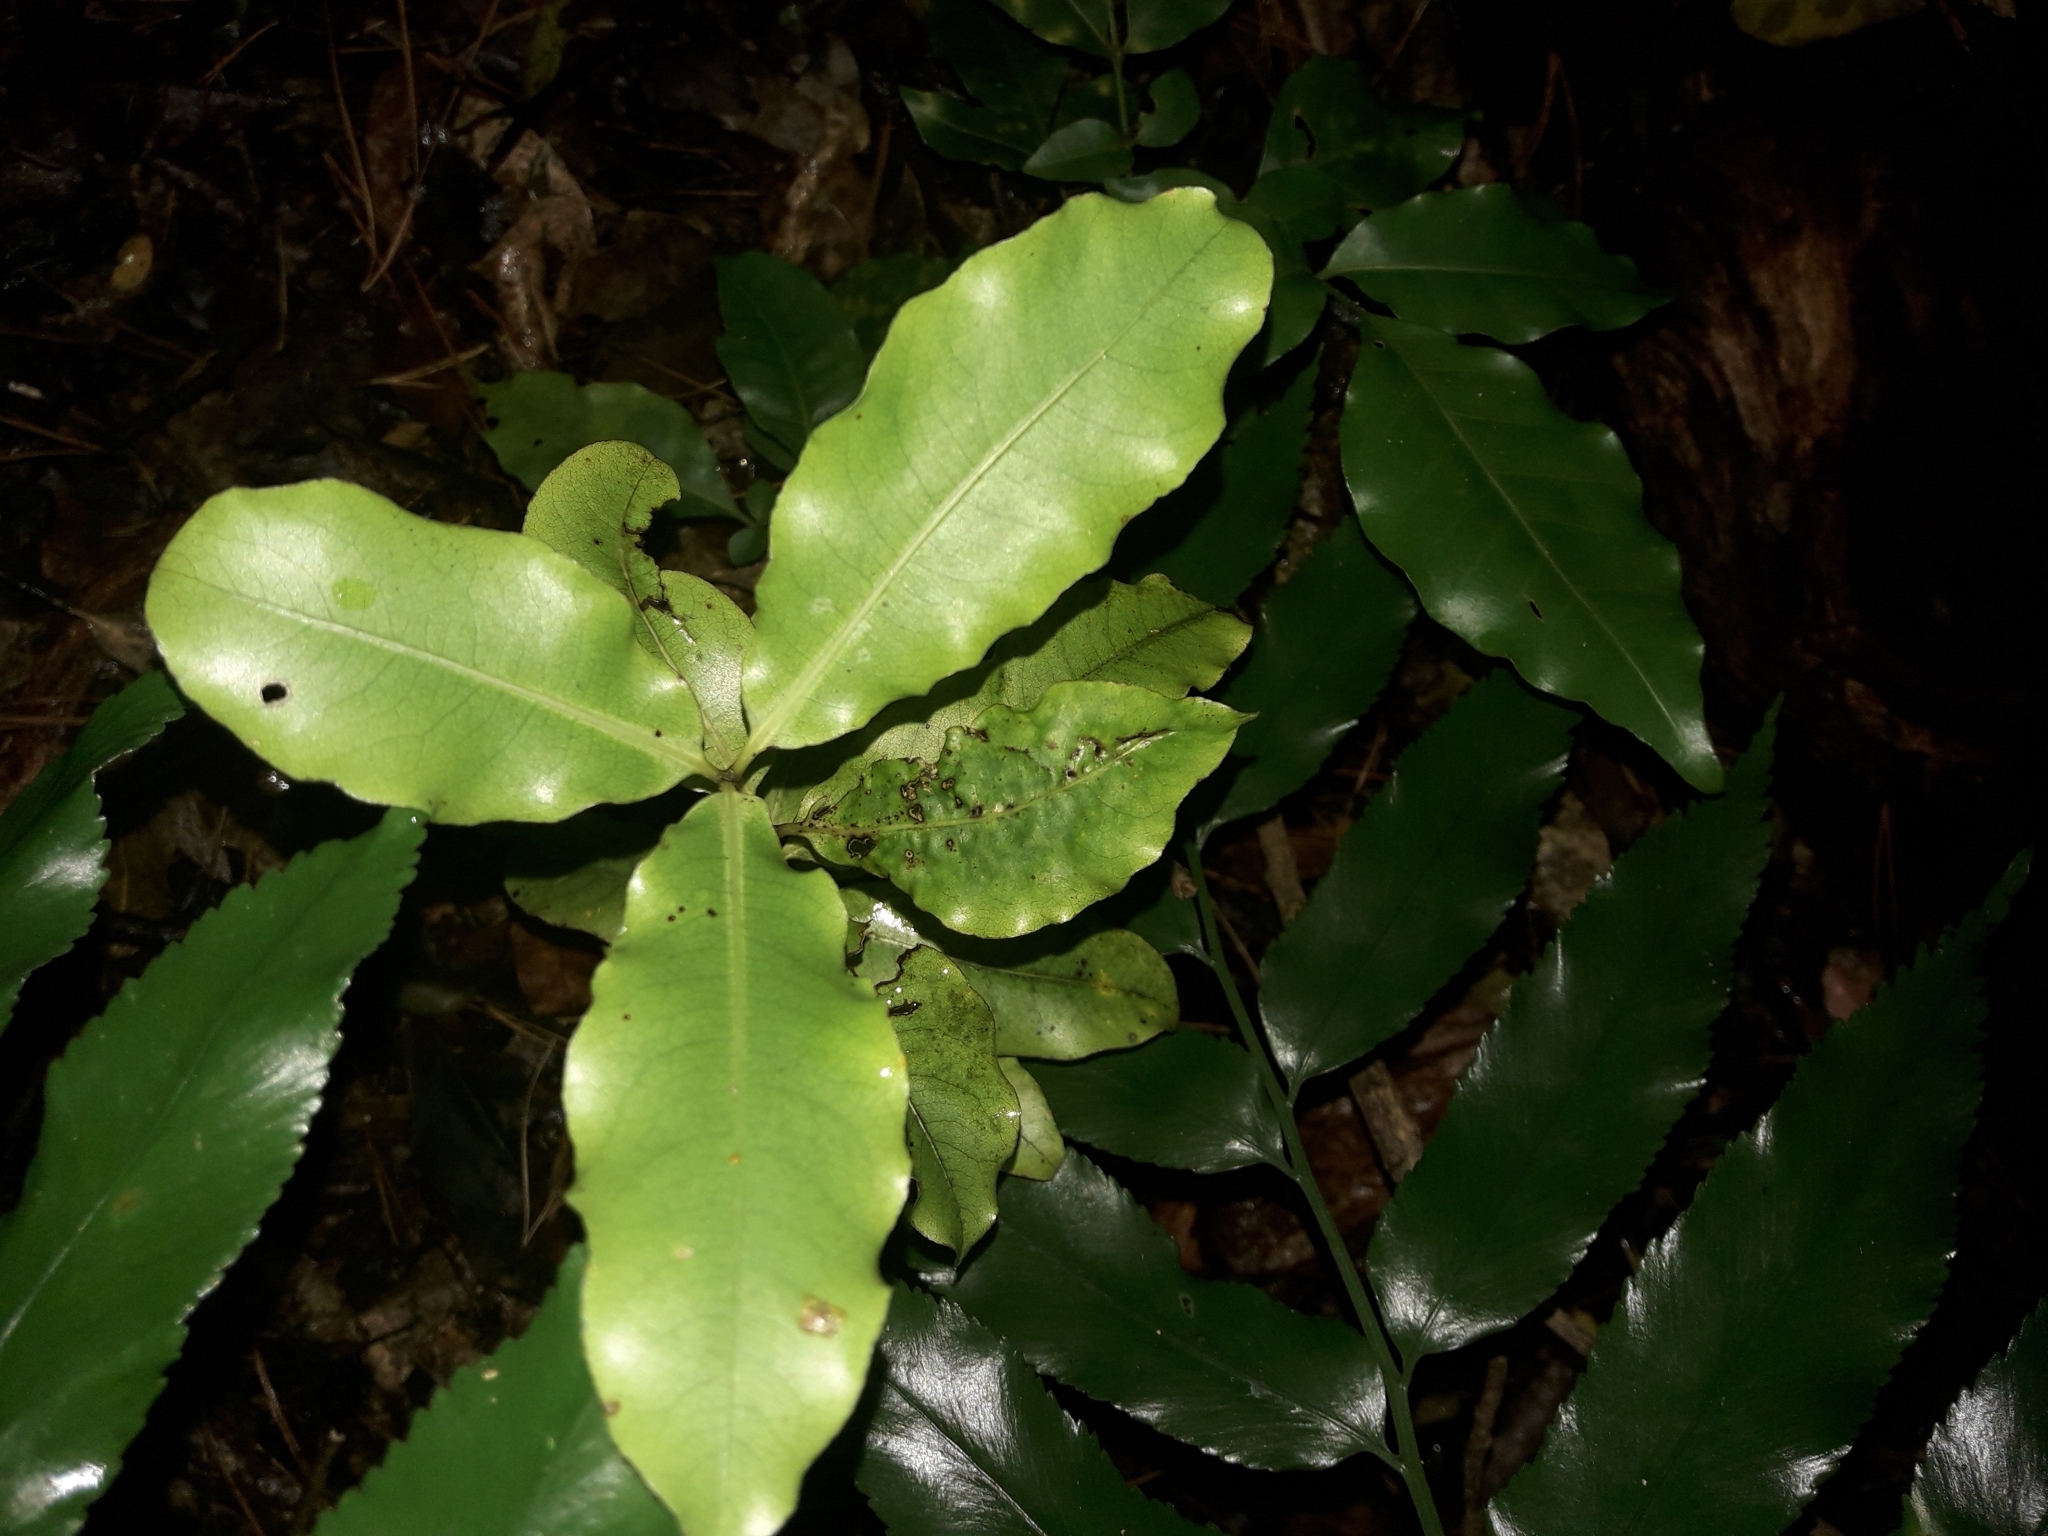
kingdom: Plantae
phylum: Tracheophyta
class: Magnoliopsida
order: Apiales
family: Pittosporaceae
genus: Pittosporum
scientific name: Pittosporum eugenioides
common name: Lemonwood
